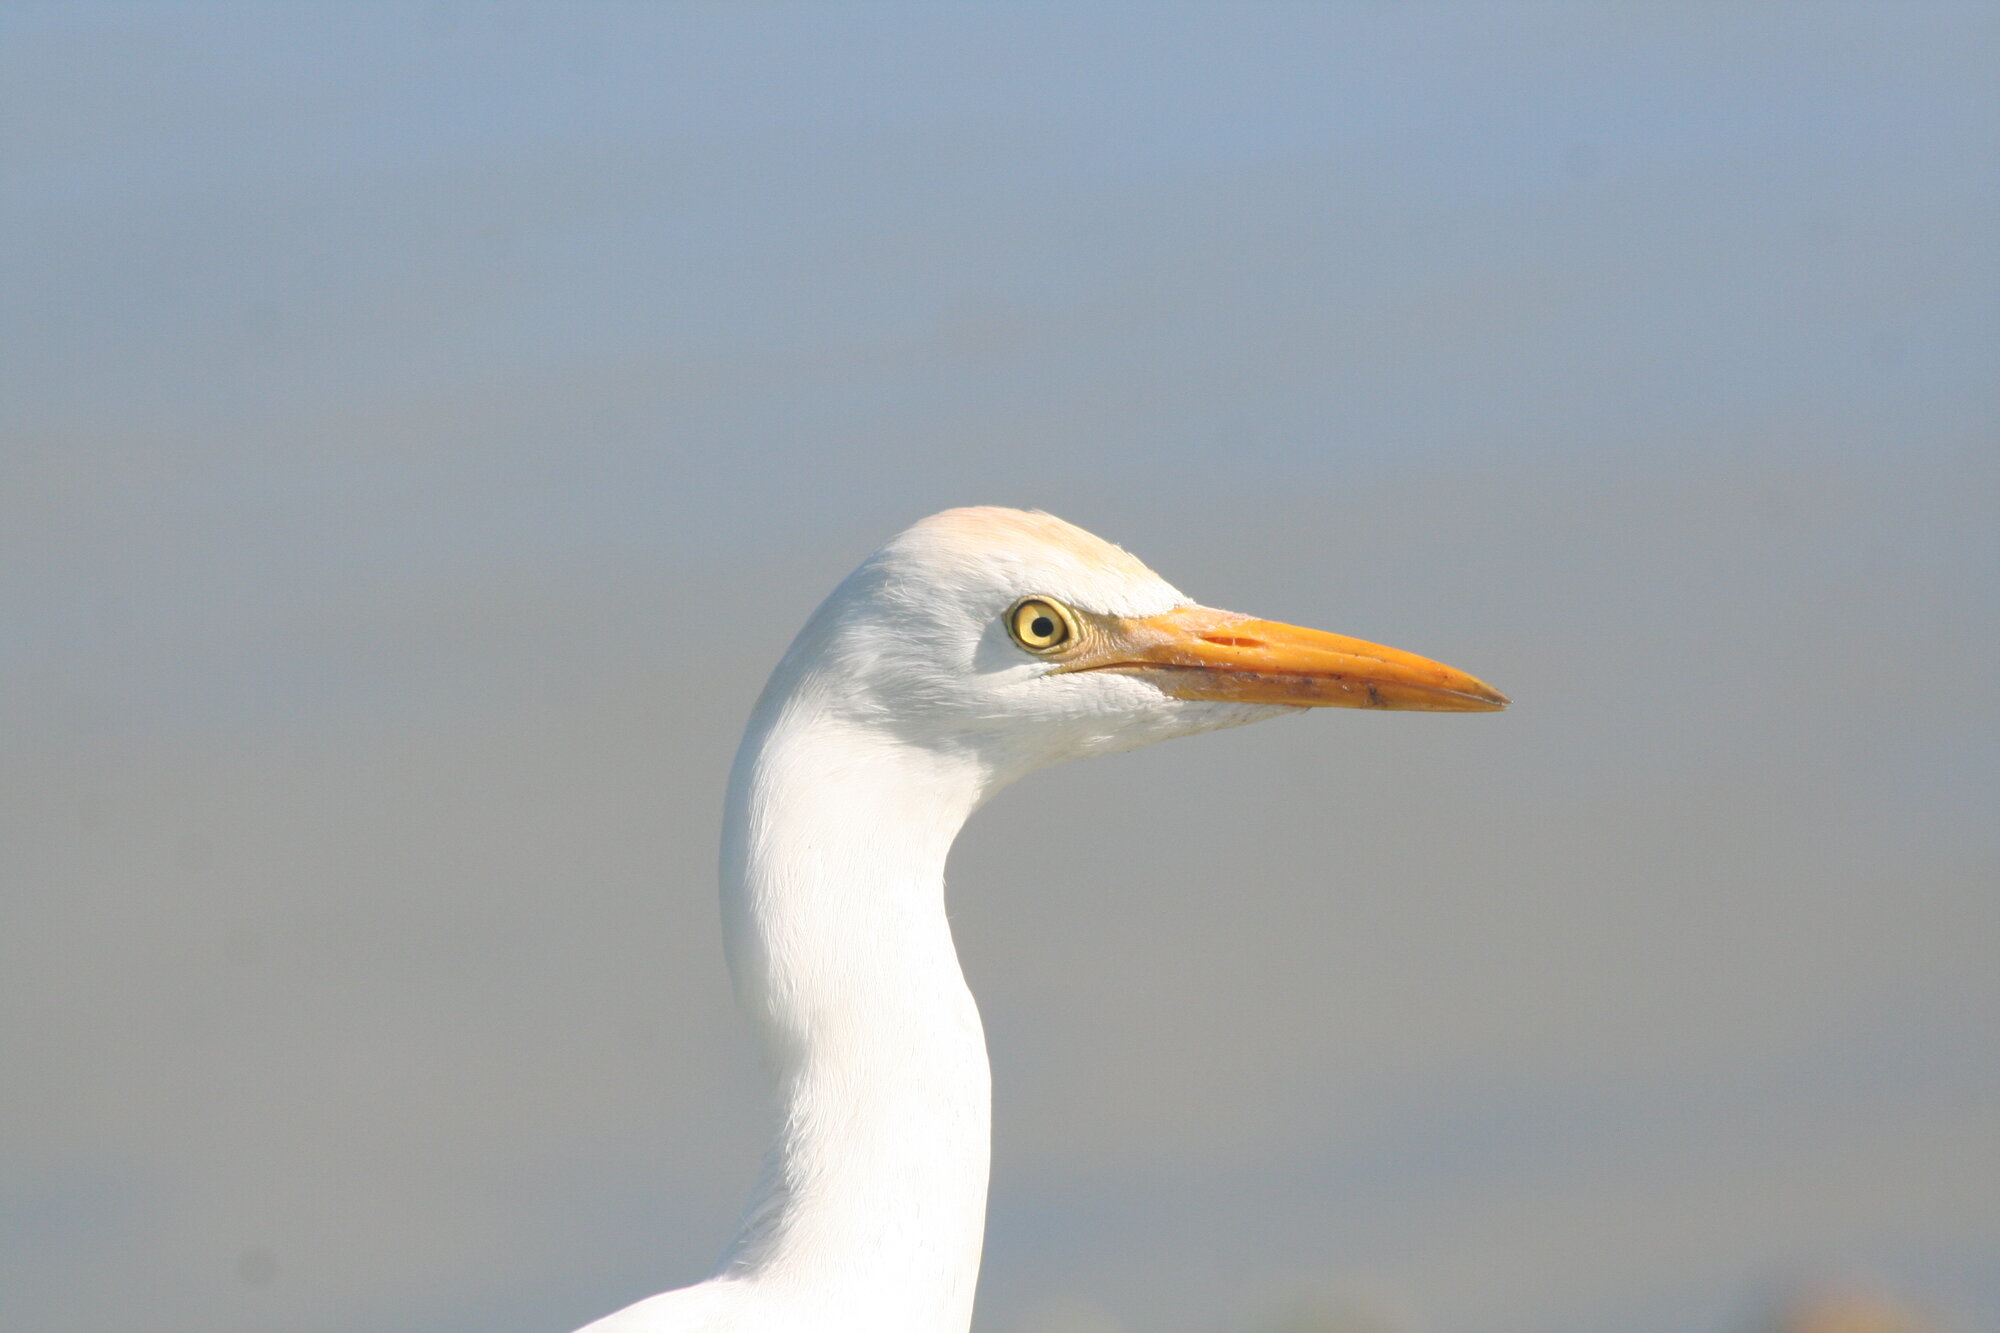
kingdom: Animalia
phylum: Chordata
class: Aves
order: Pelecaniformes
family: Ardeidae
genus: Bubulcus
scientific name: Bubulcus ibis
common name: Cattle egret
